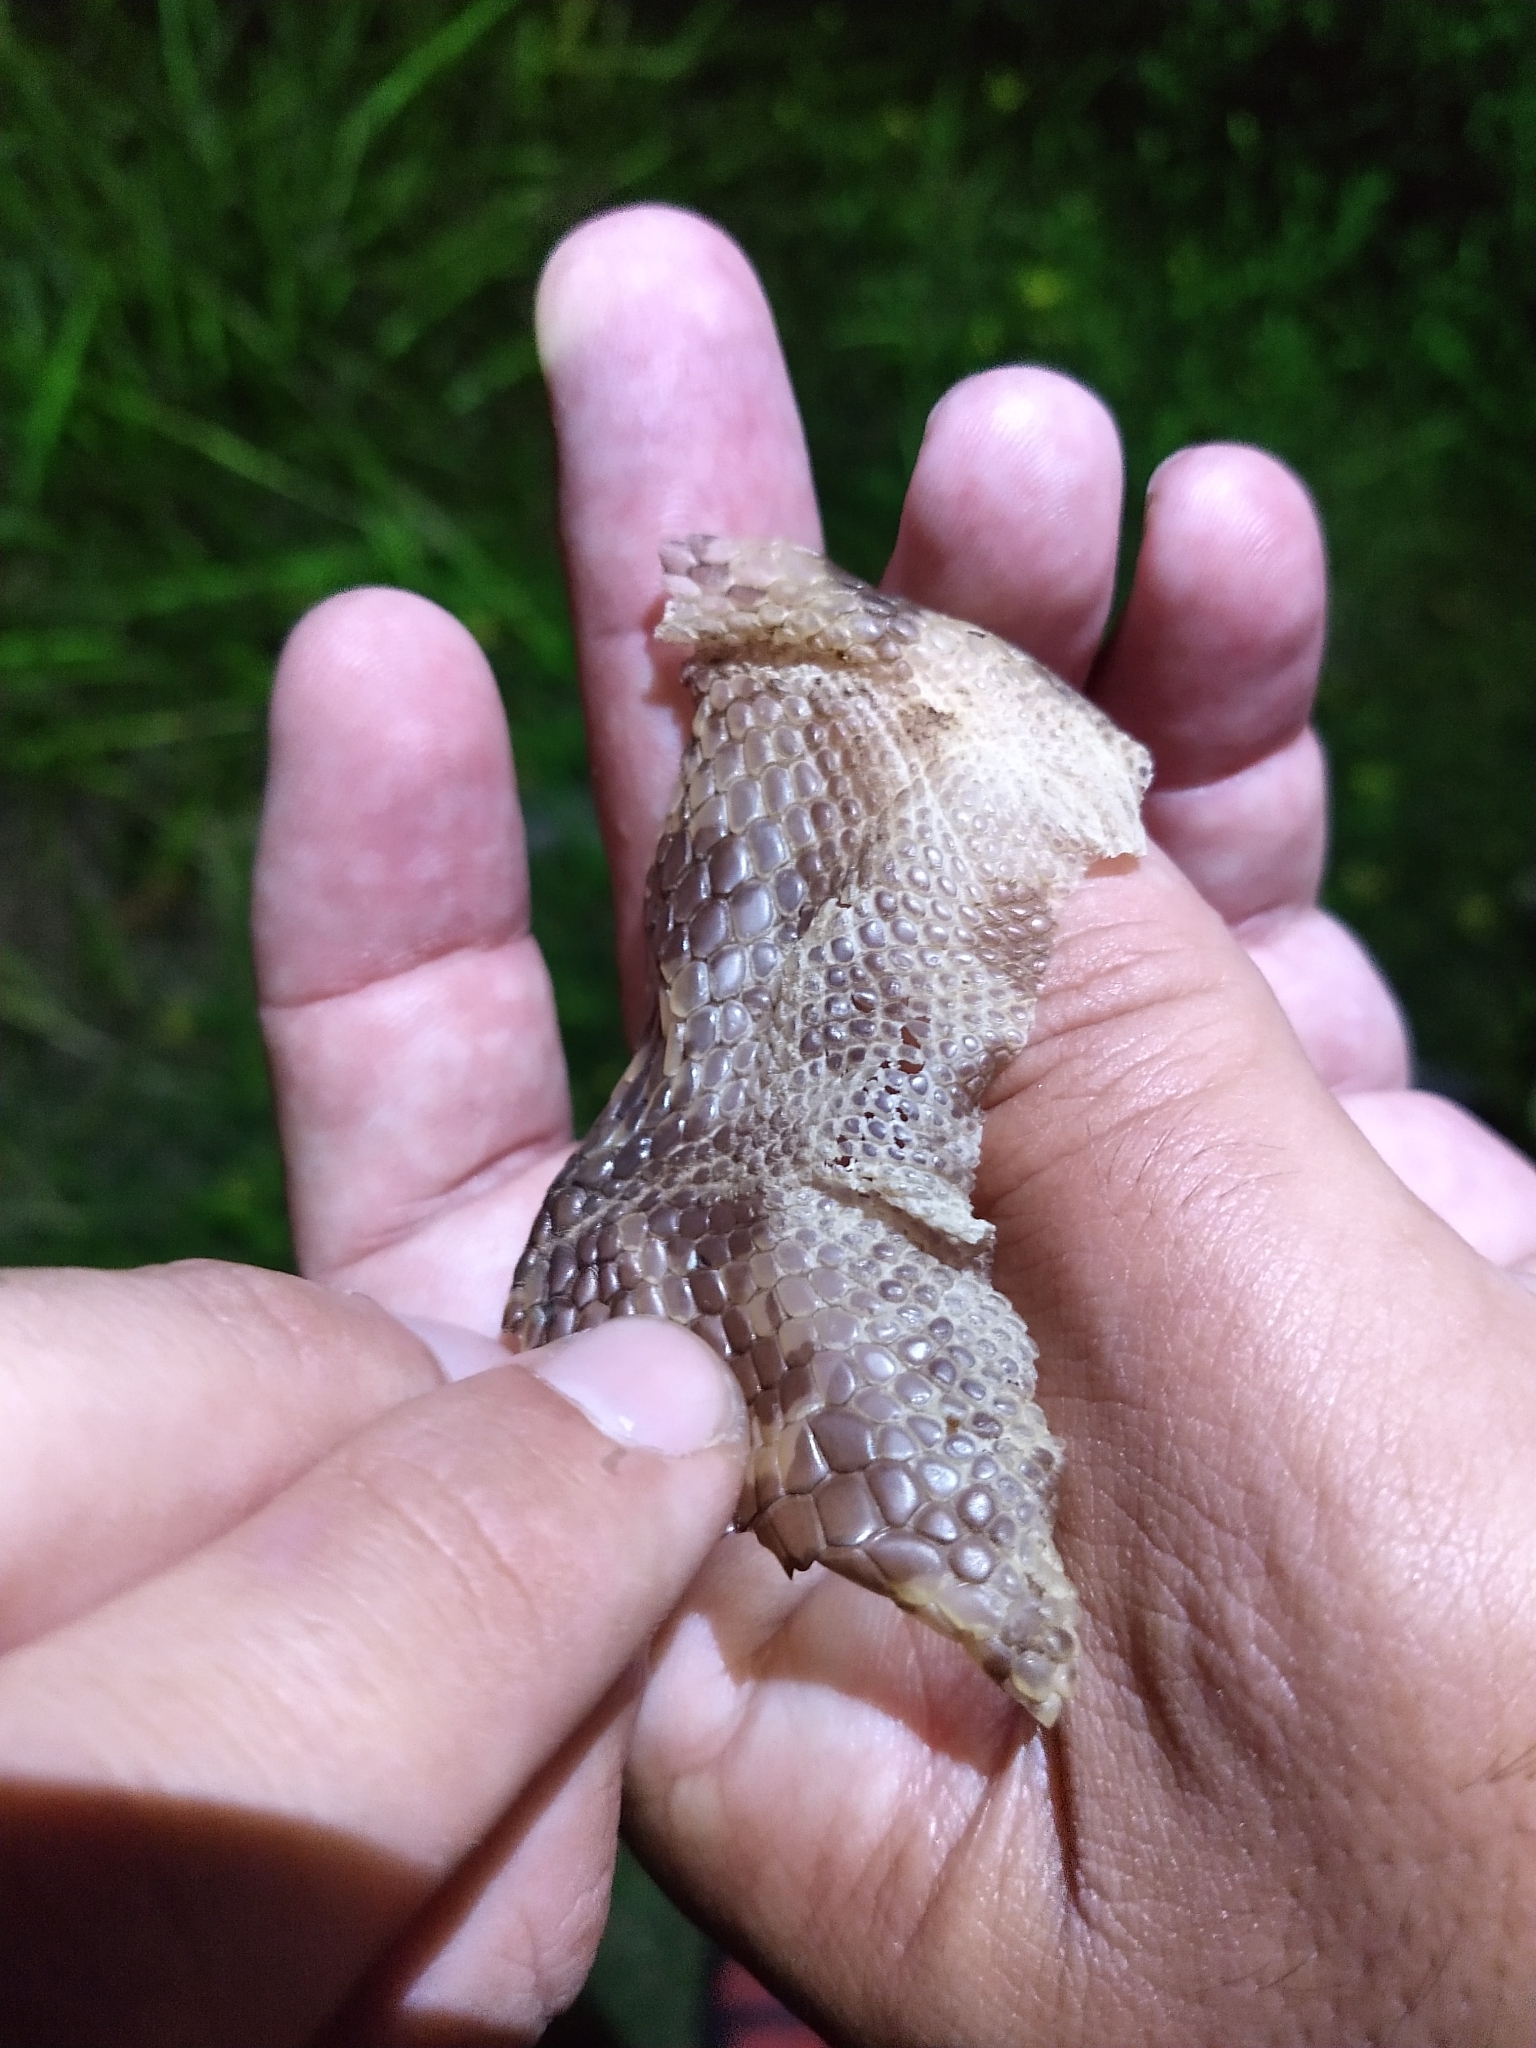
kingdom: Animalia
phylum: Chordata
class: Squamata
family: Teiidae
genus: Salvator
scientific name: Salvator merianae
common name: Argentine black and white tegu
